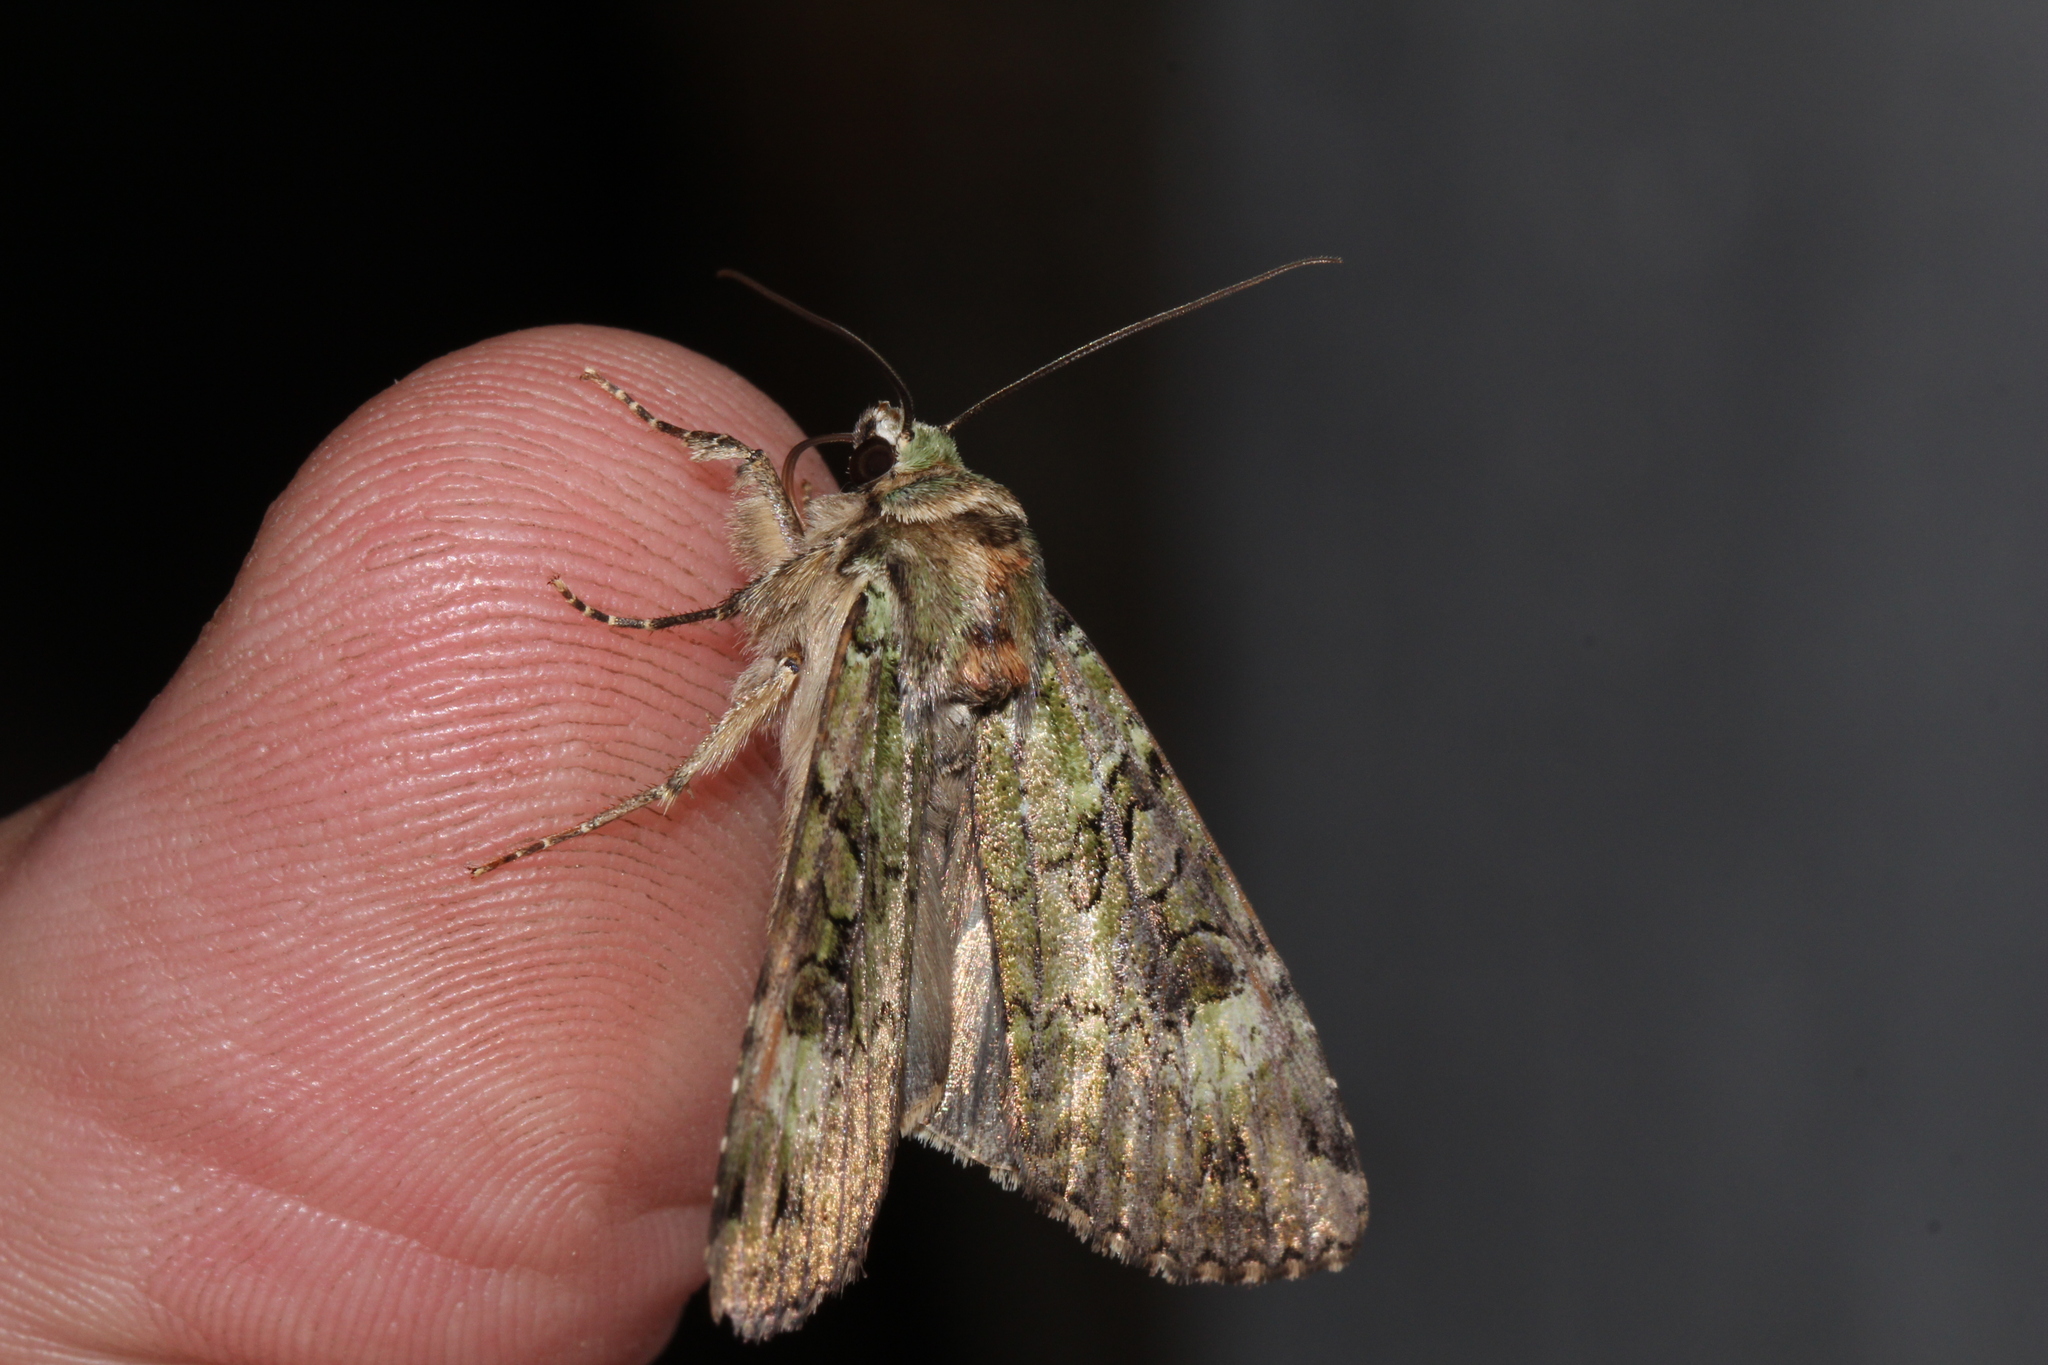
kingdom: Animalia
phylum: Arthropoda
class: Insecta
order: Lepidoptera
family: Noctuidae
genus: Anaplectoides
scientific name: Anaplectoides prasina
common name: Green arches
